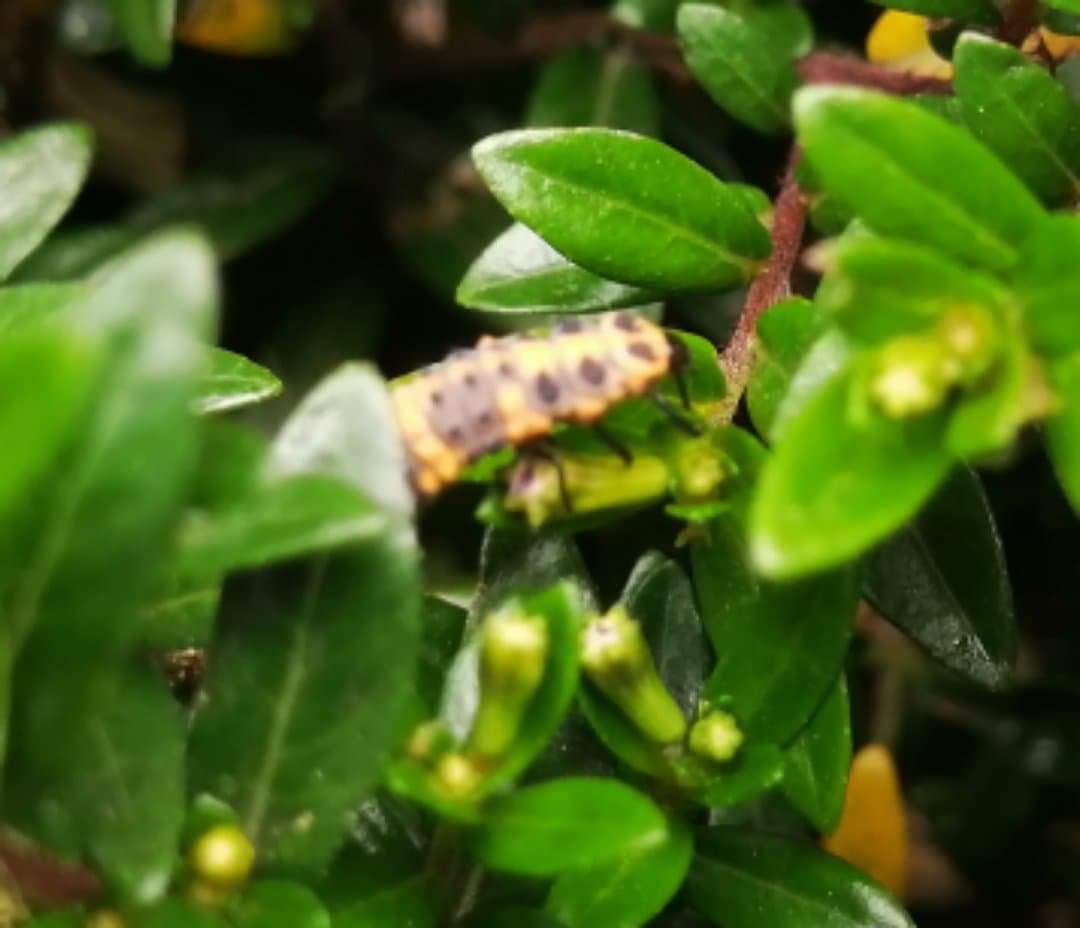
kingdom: Animalia
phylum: Arthropoda
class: Insecta
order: Coleoptera
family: Coccinellidae
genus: Coccinella
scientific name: Coccinella septempunctata
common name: Sevenspotted lady beetle
